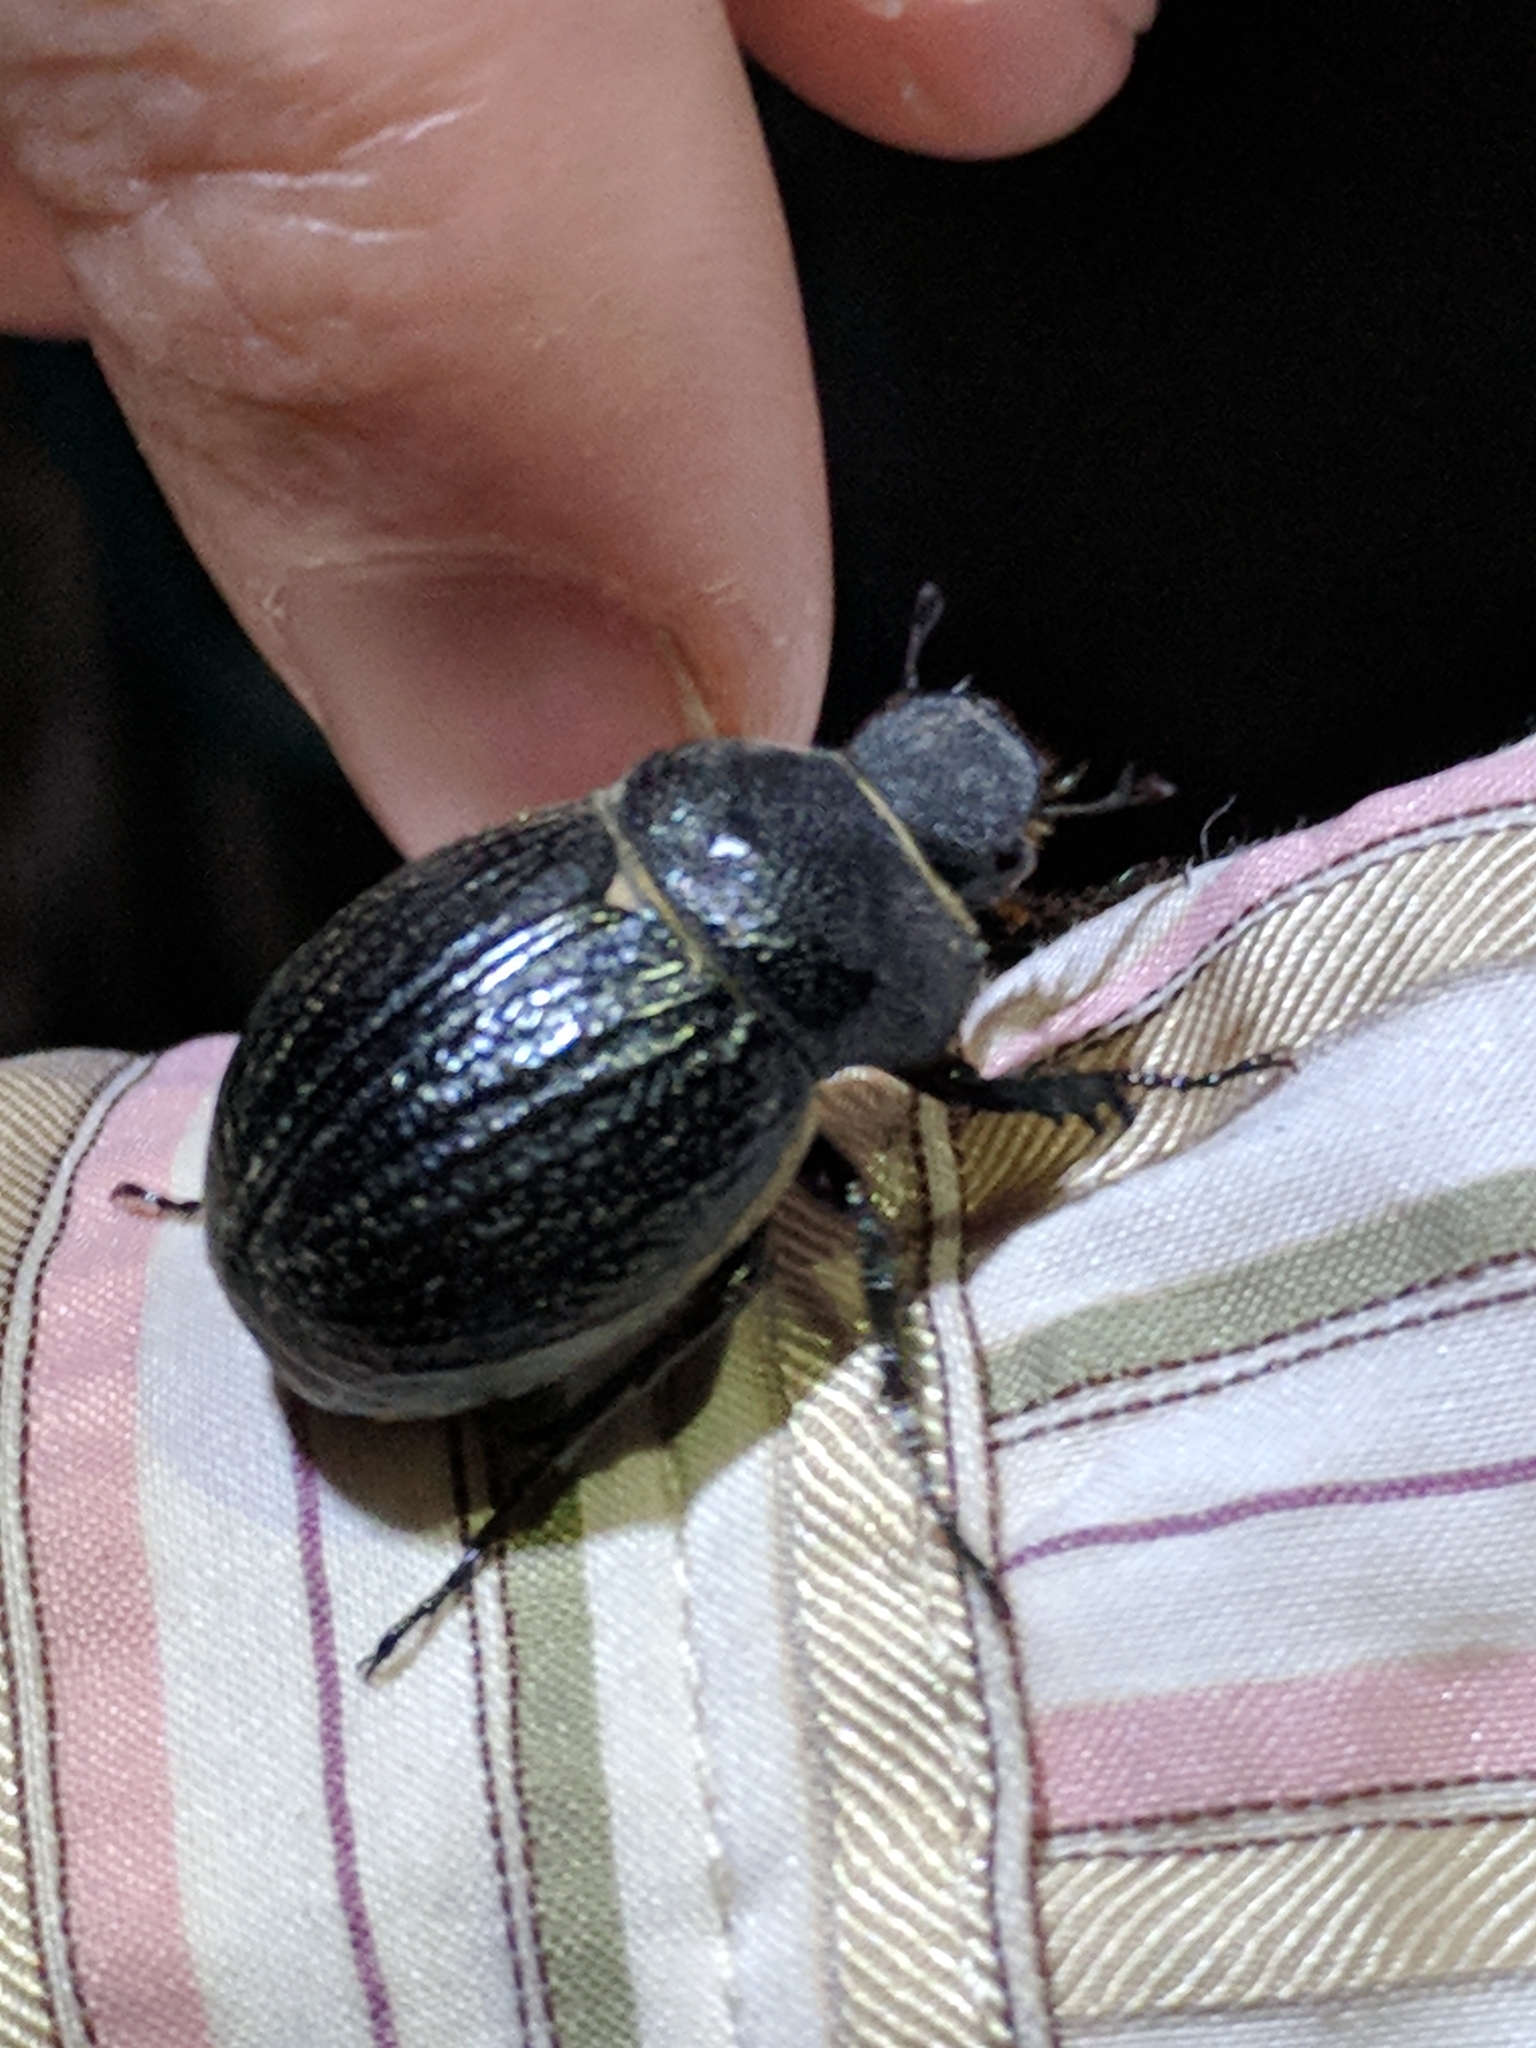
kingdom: Animalia
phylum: Arthropoda
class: Insecta
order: Coleoptera
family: Scarabaeidae
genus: Phyllophaga
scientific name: Phyllophaga cribrosa
